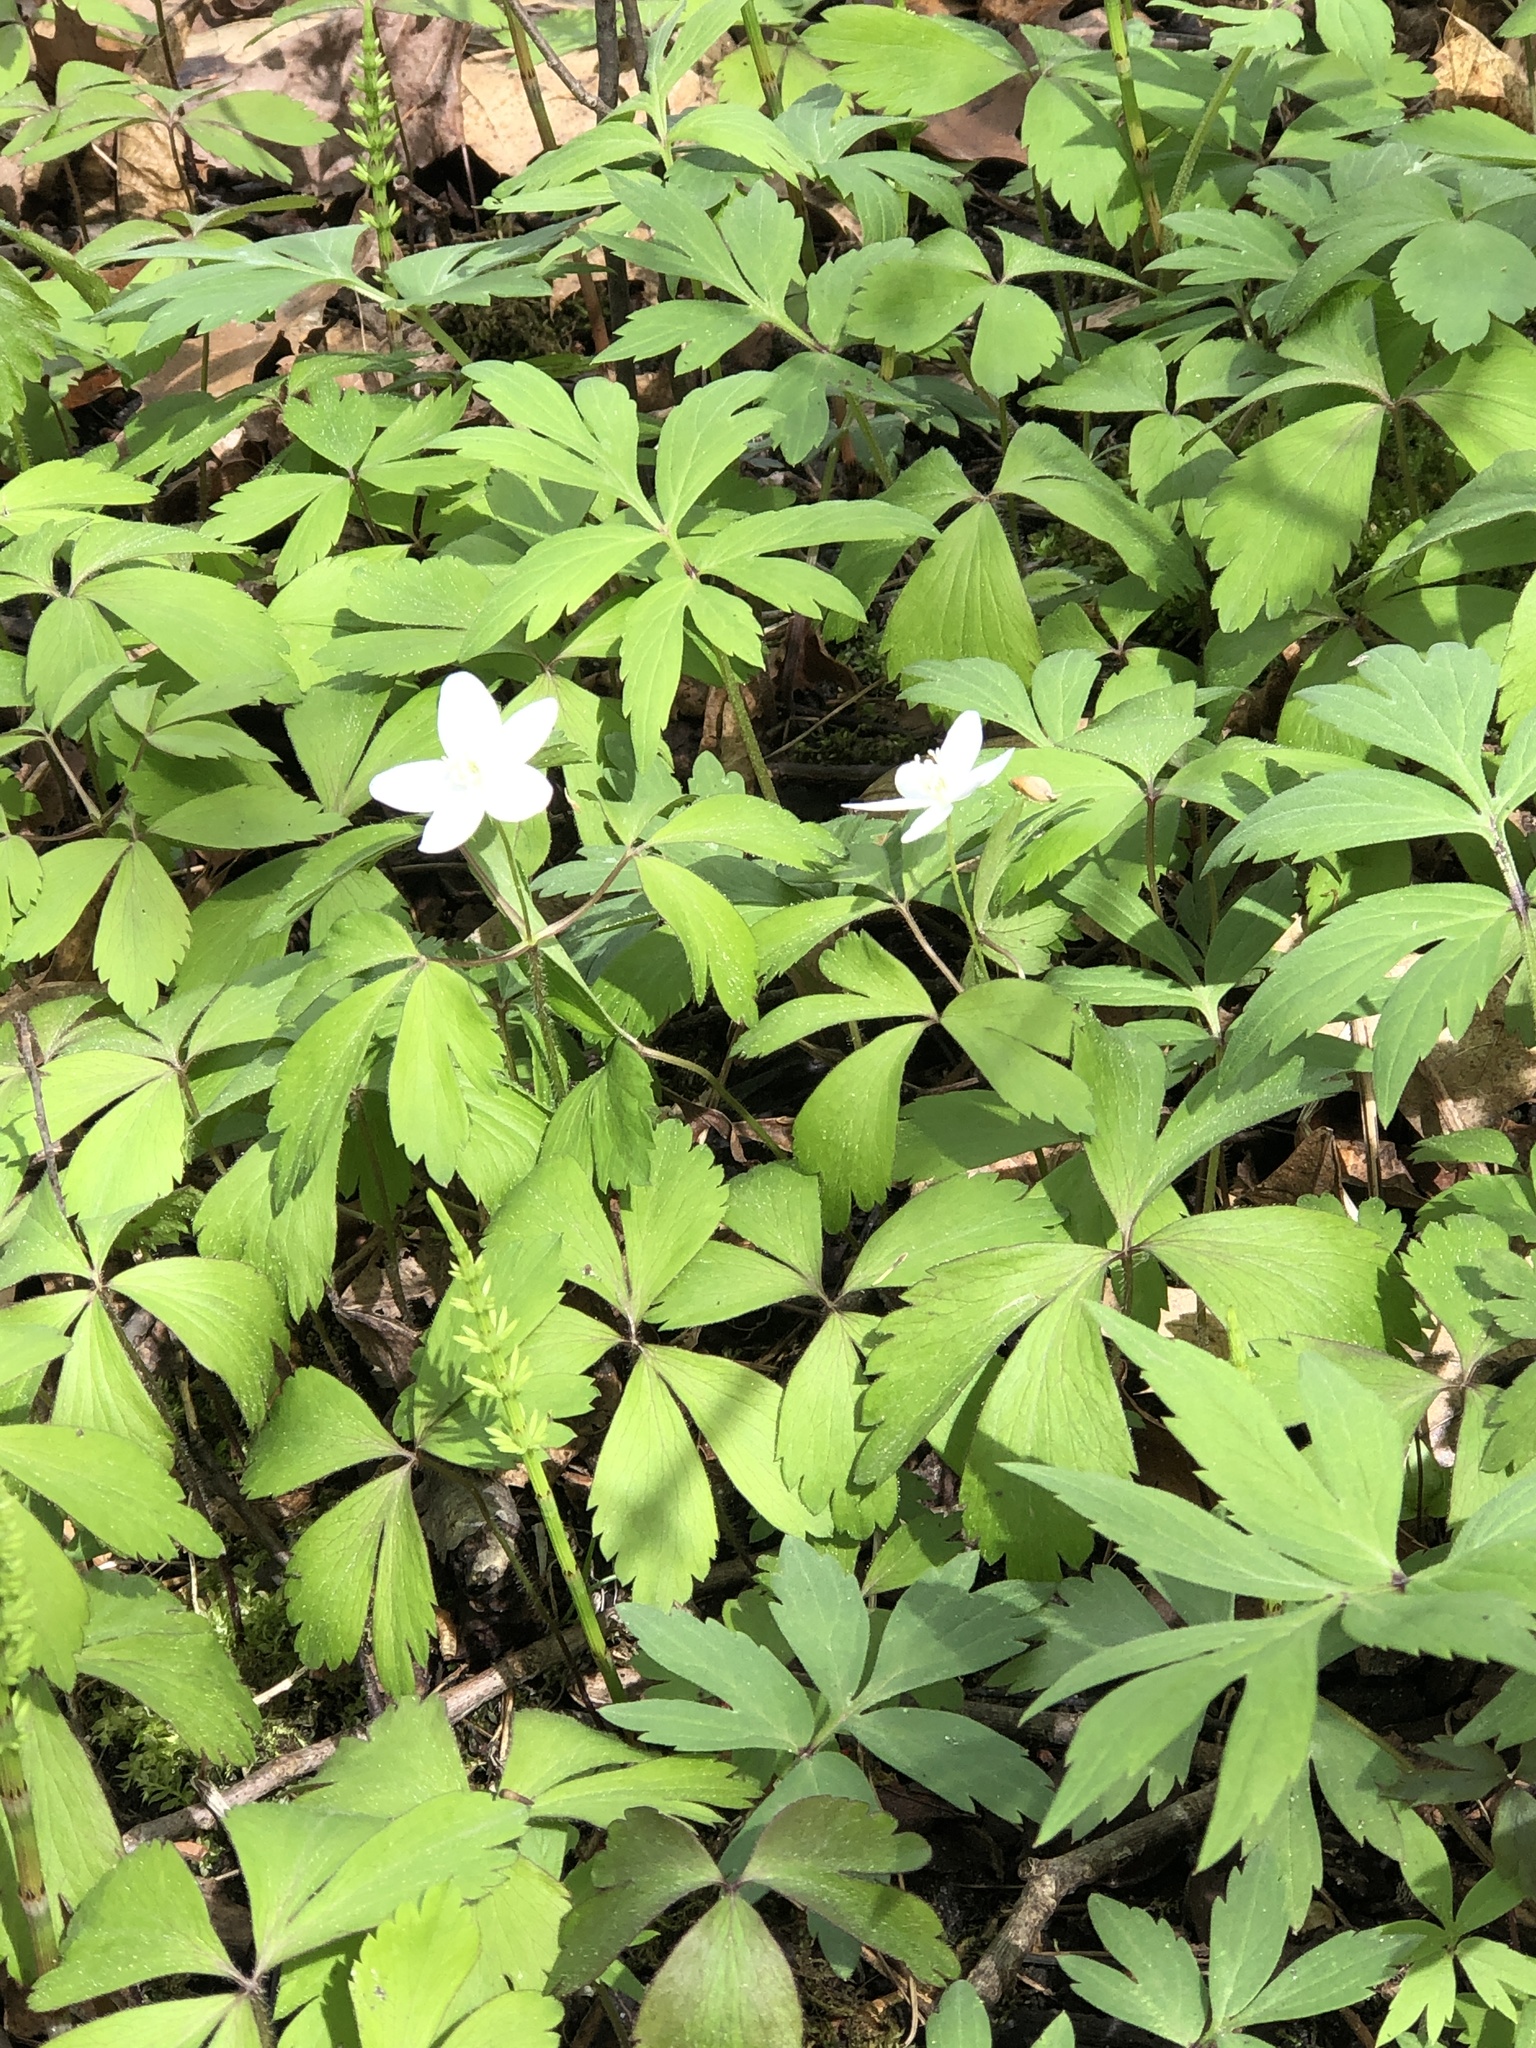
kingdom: Plantae
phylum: Tracheophyta
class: Magnoliopsida
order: Ranunculales
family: Ranunculaceae
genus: Anemone
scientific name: Anemone quinquefolia
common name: Wood anemone
